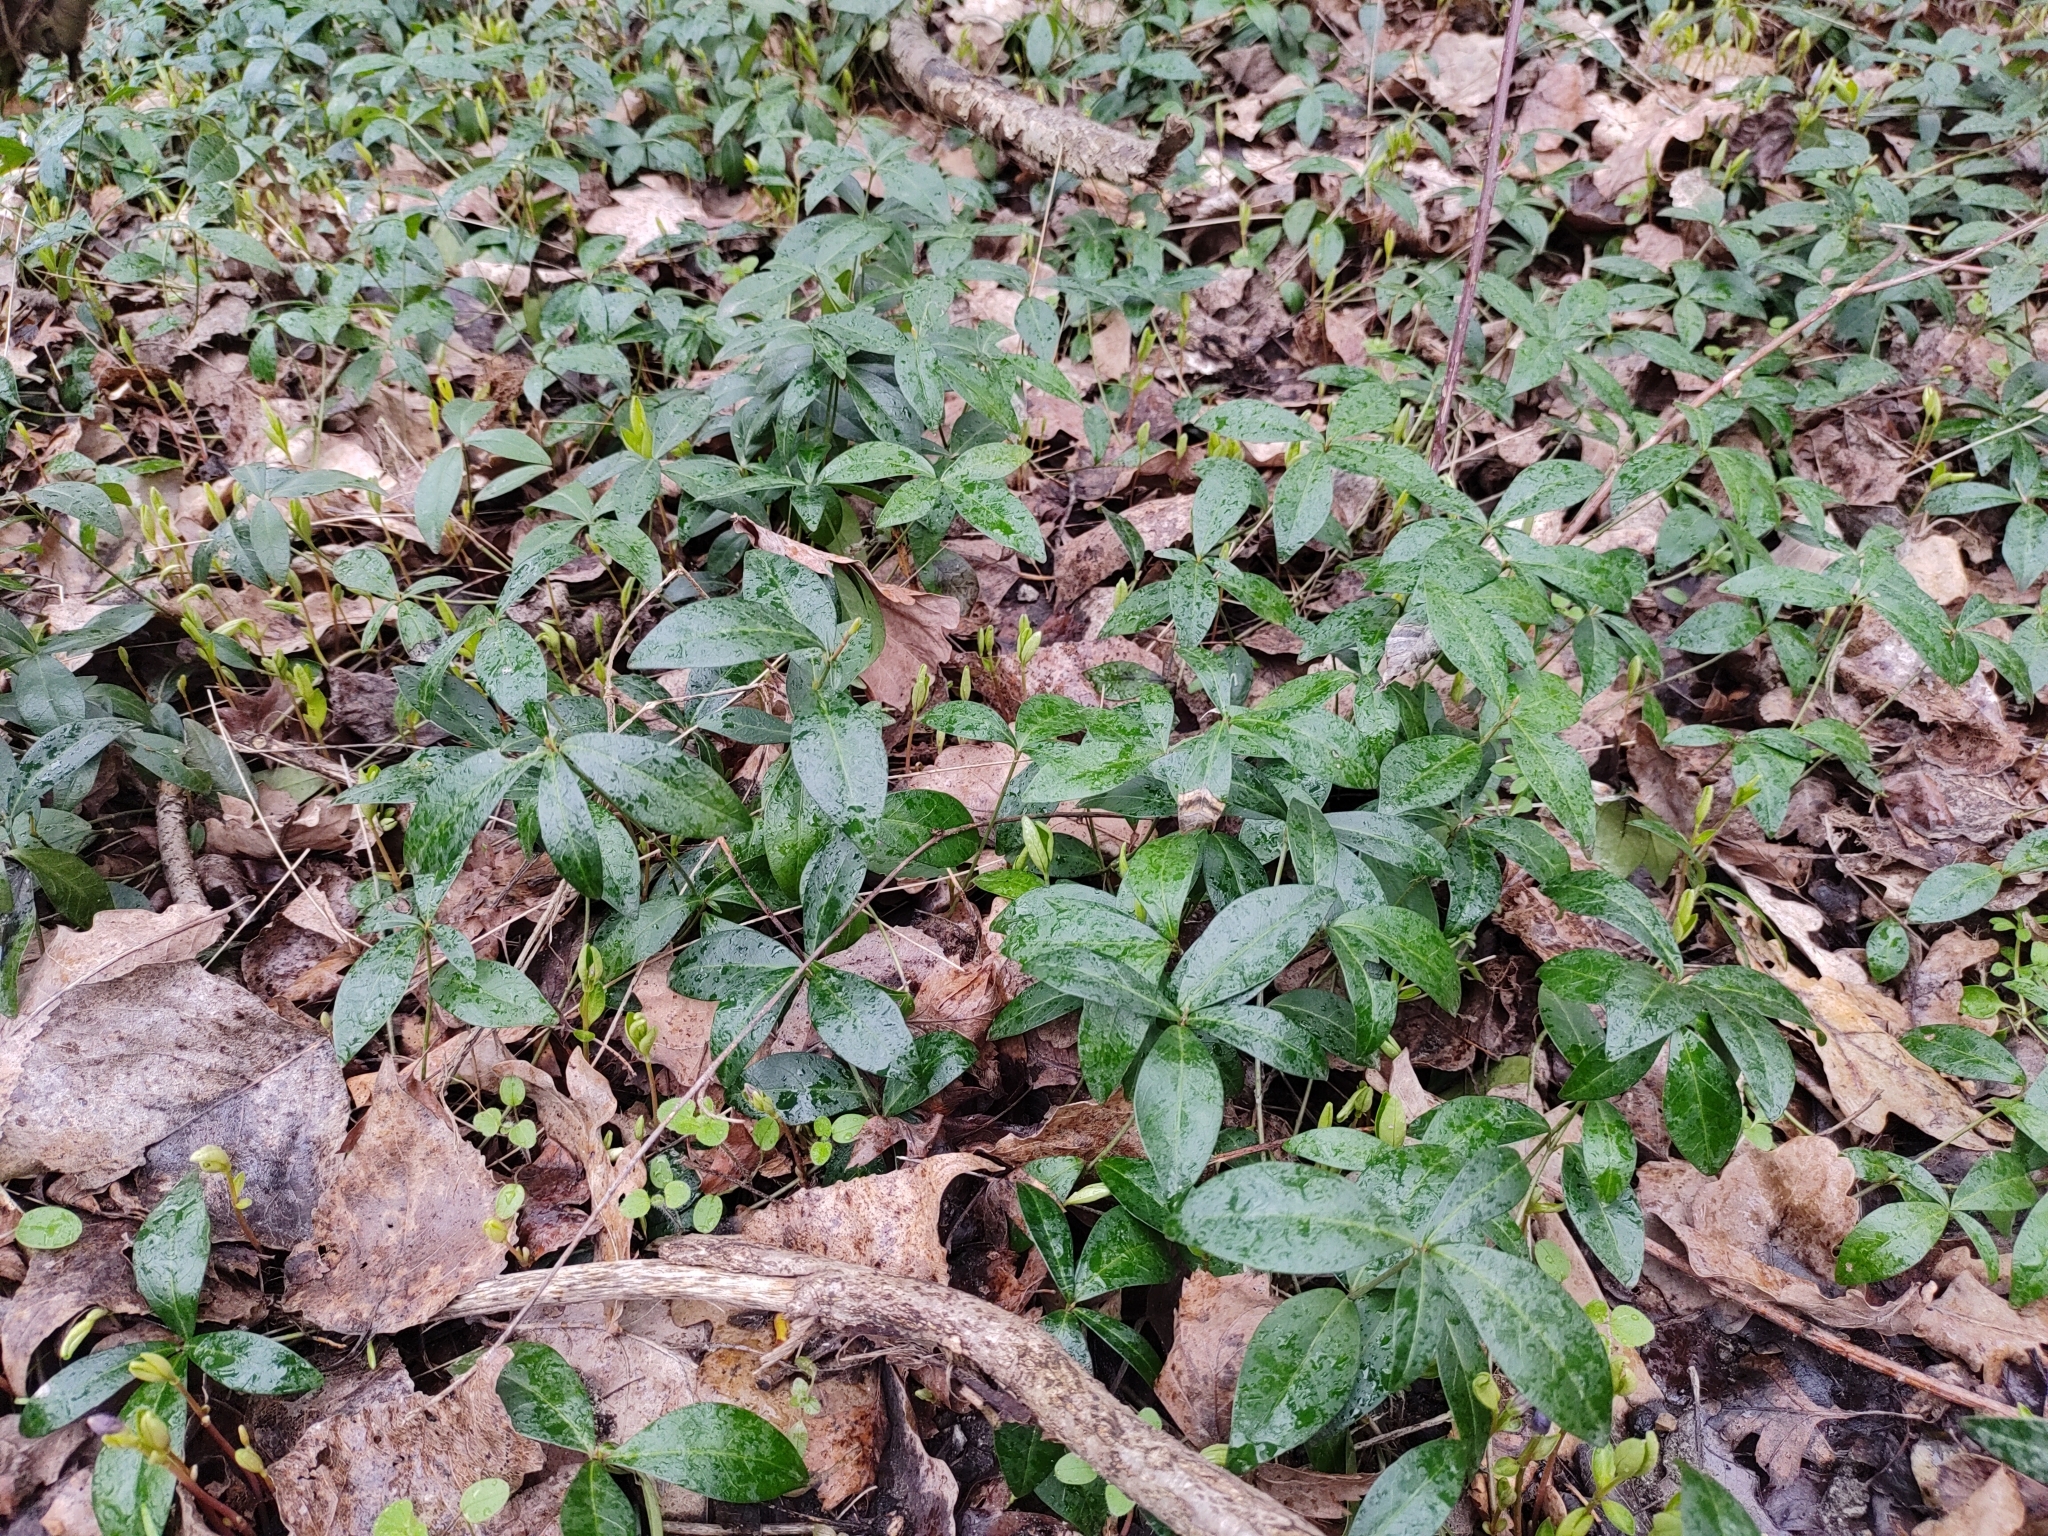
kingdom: Plantae
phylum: Tracheophyta
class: Magnoliopsida
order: Gentianales
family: Apocynaceae
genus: Vinca
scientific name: Vinca minor
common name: Lesser periwinkle
